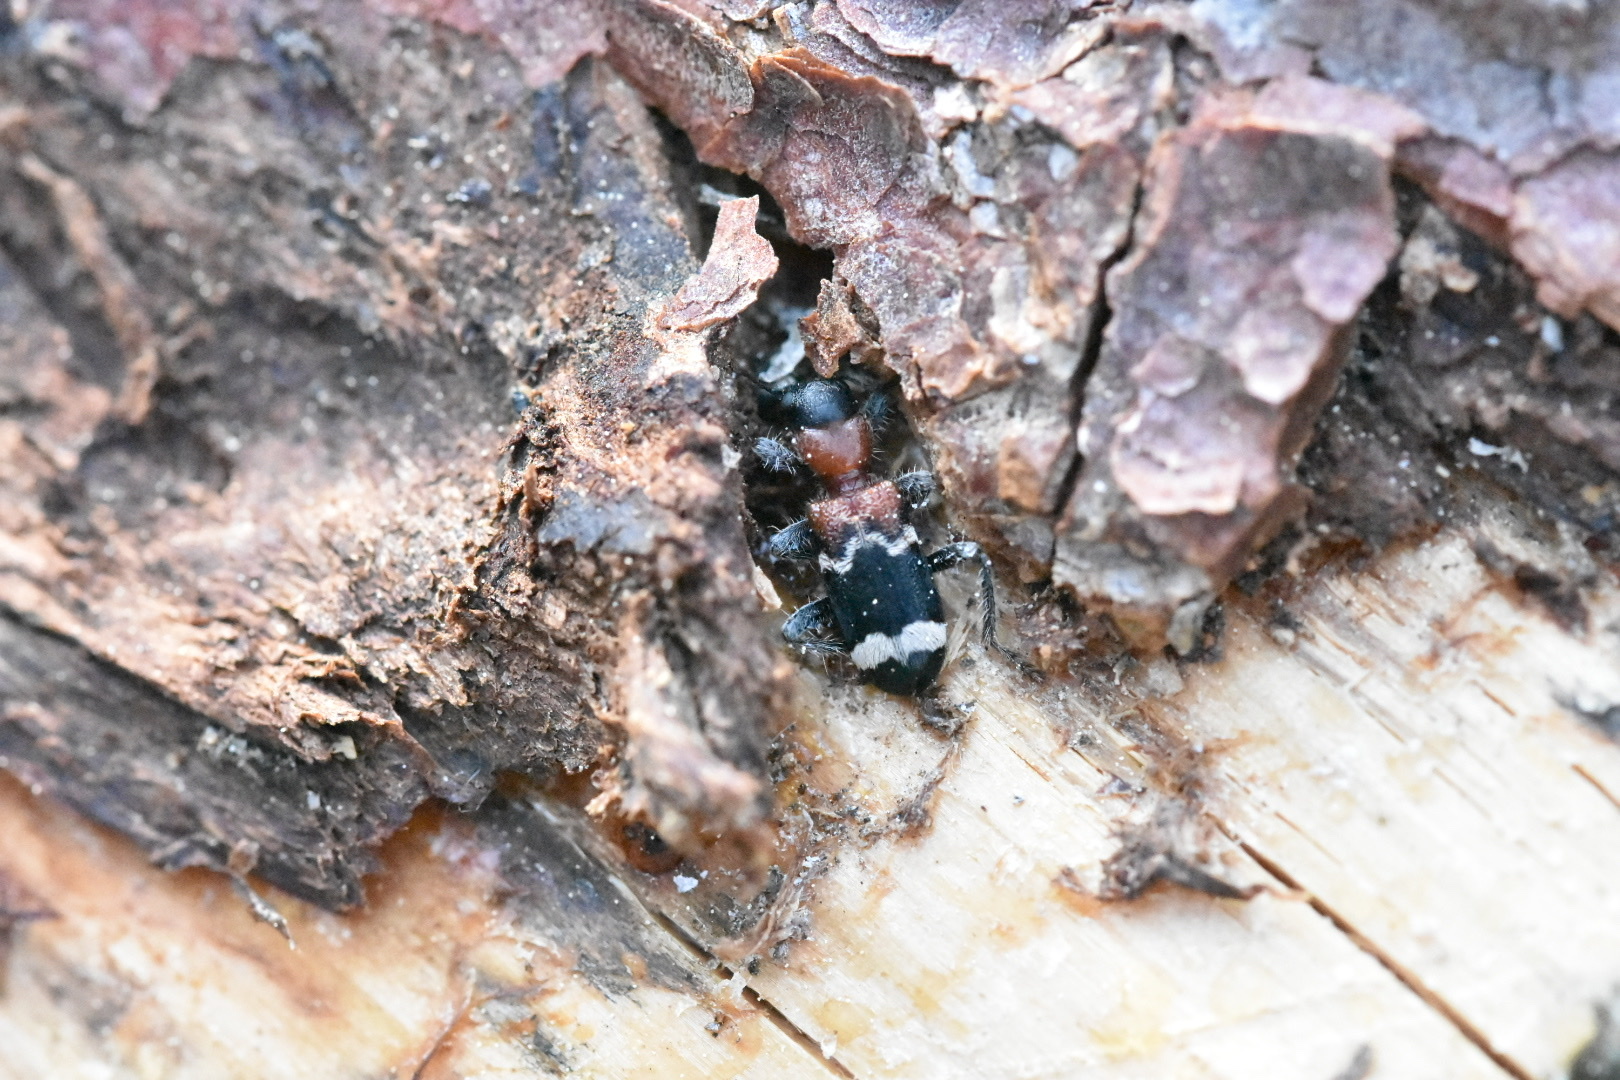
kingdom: Animalia
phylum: Arthropoda
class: Insecta
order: Coleoptera
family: Cleridae
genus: Thanasimus
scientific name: Thanasimus formicarius
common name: Ant beetle
